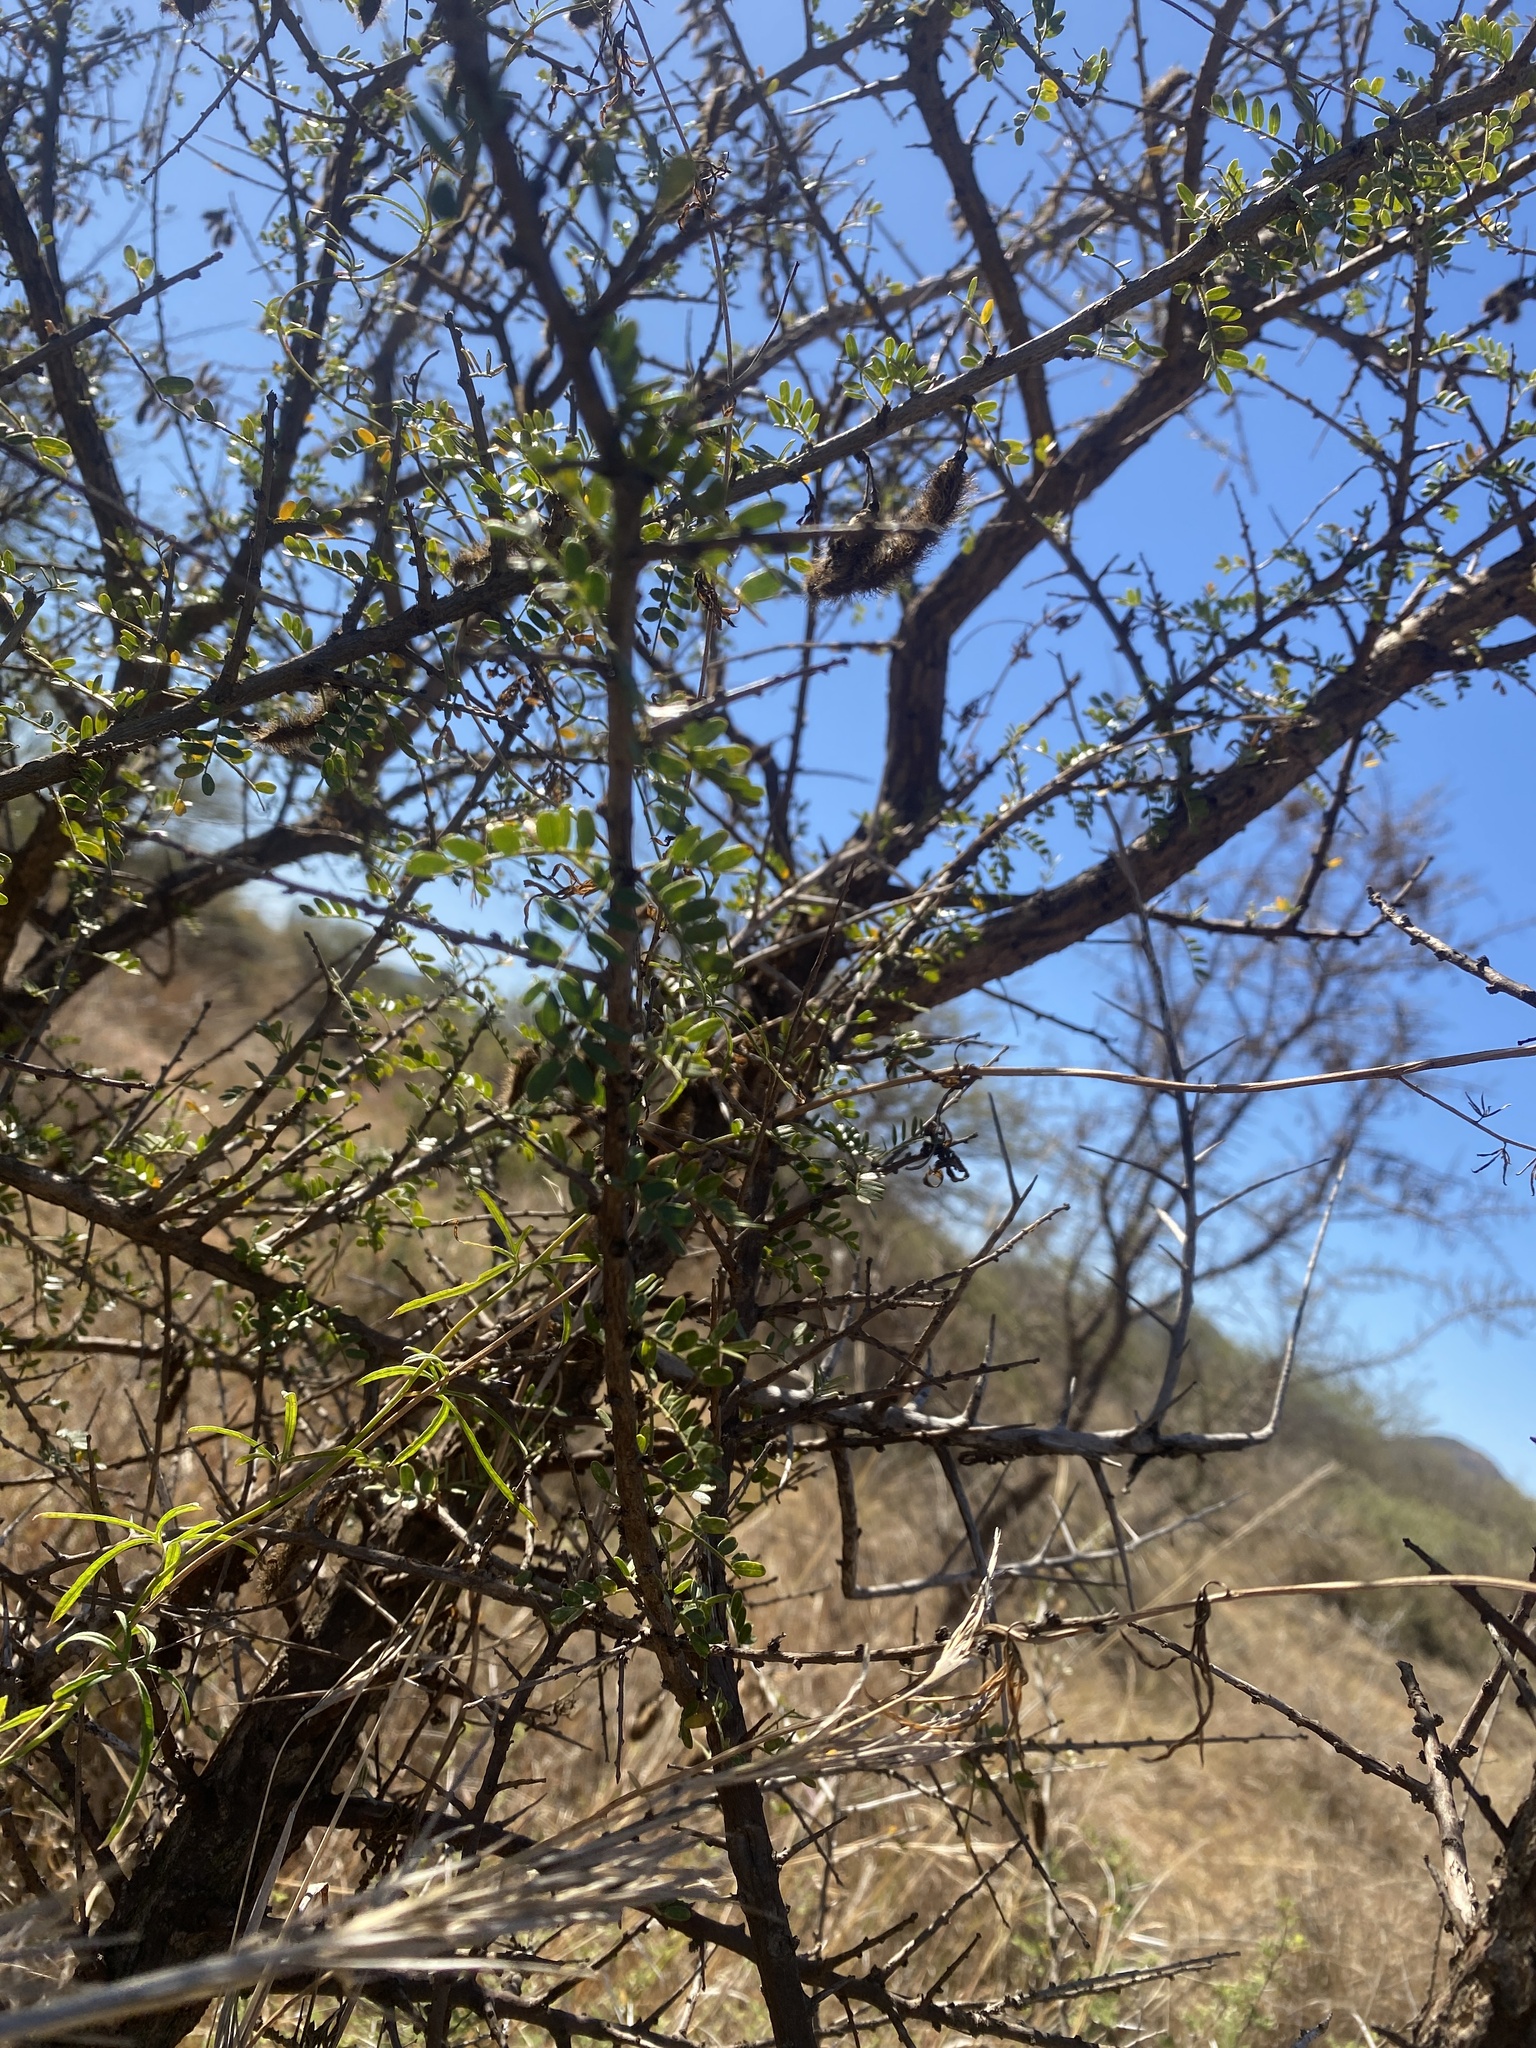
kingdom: Plantae
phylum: Tracheophyta
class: Magnoliopsida
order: Fabales
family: Fabaceae
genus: Ormocarpum
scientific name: Ormocarpum trichocarpum
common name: Caterpillar bush
